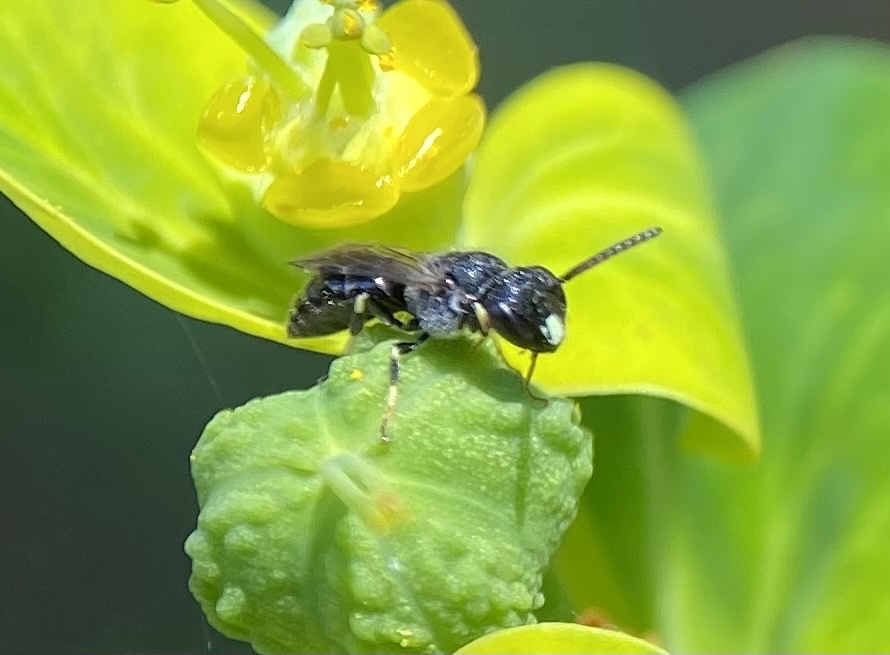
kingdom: Animalia
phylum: Arthropoda
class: Insecta
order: Hymenoptera
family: Colletidae
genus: Hylaeus
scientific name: Hylaeus punctatus
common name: Punctate masked bee
